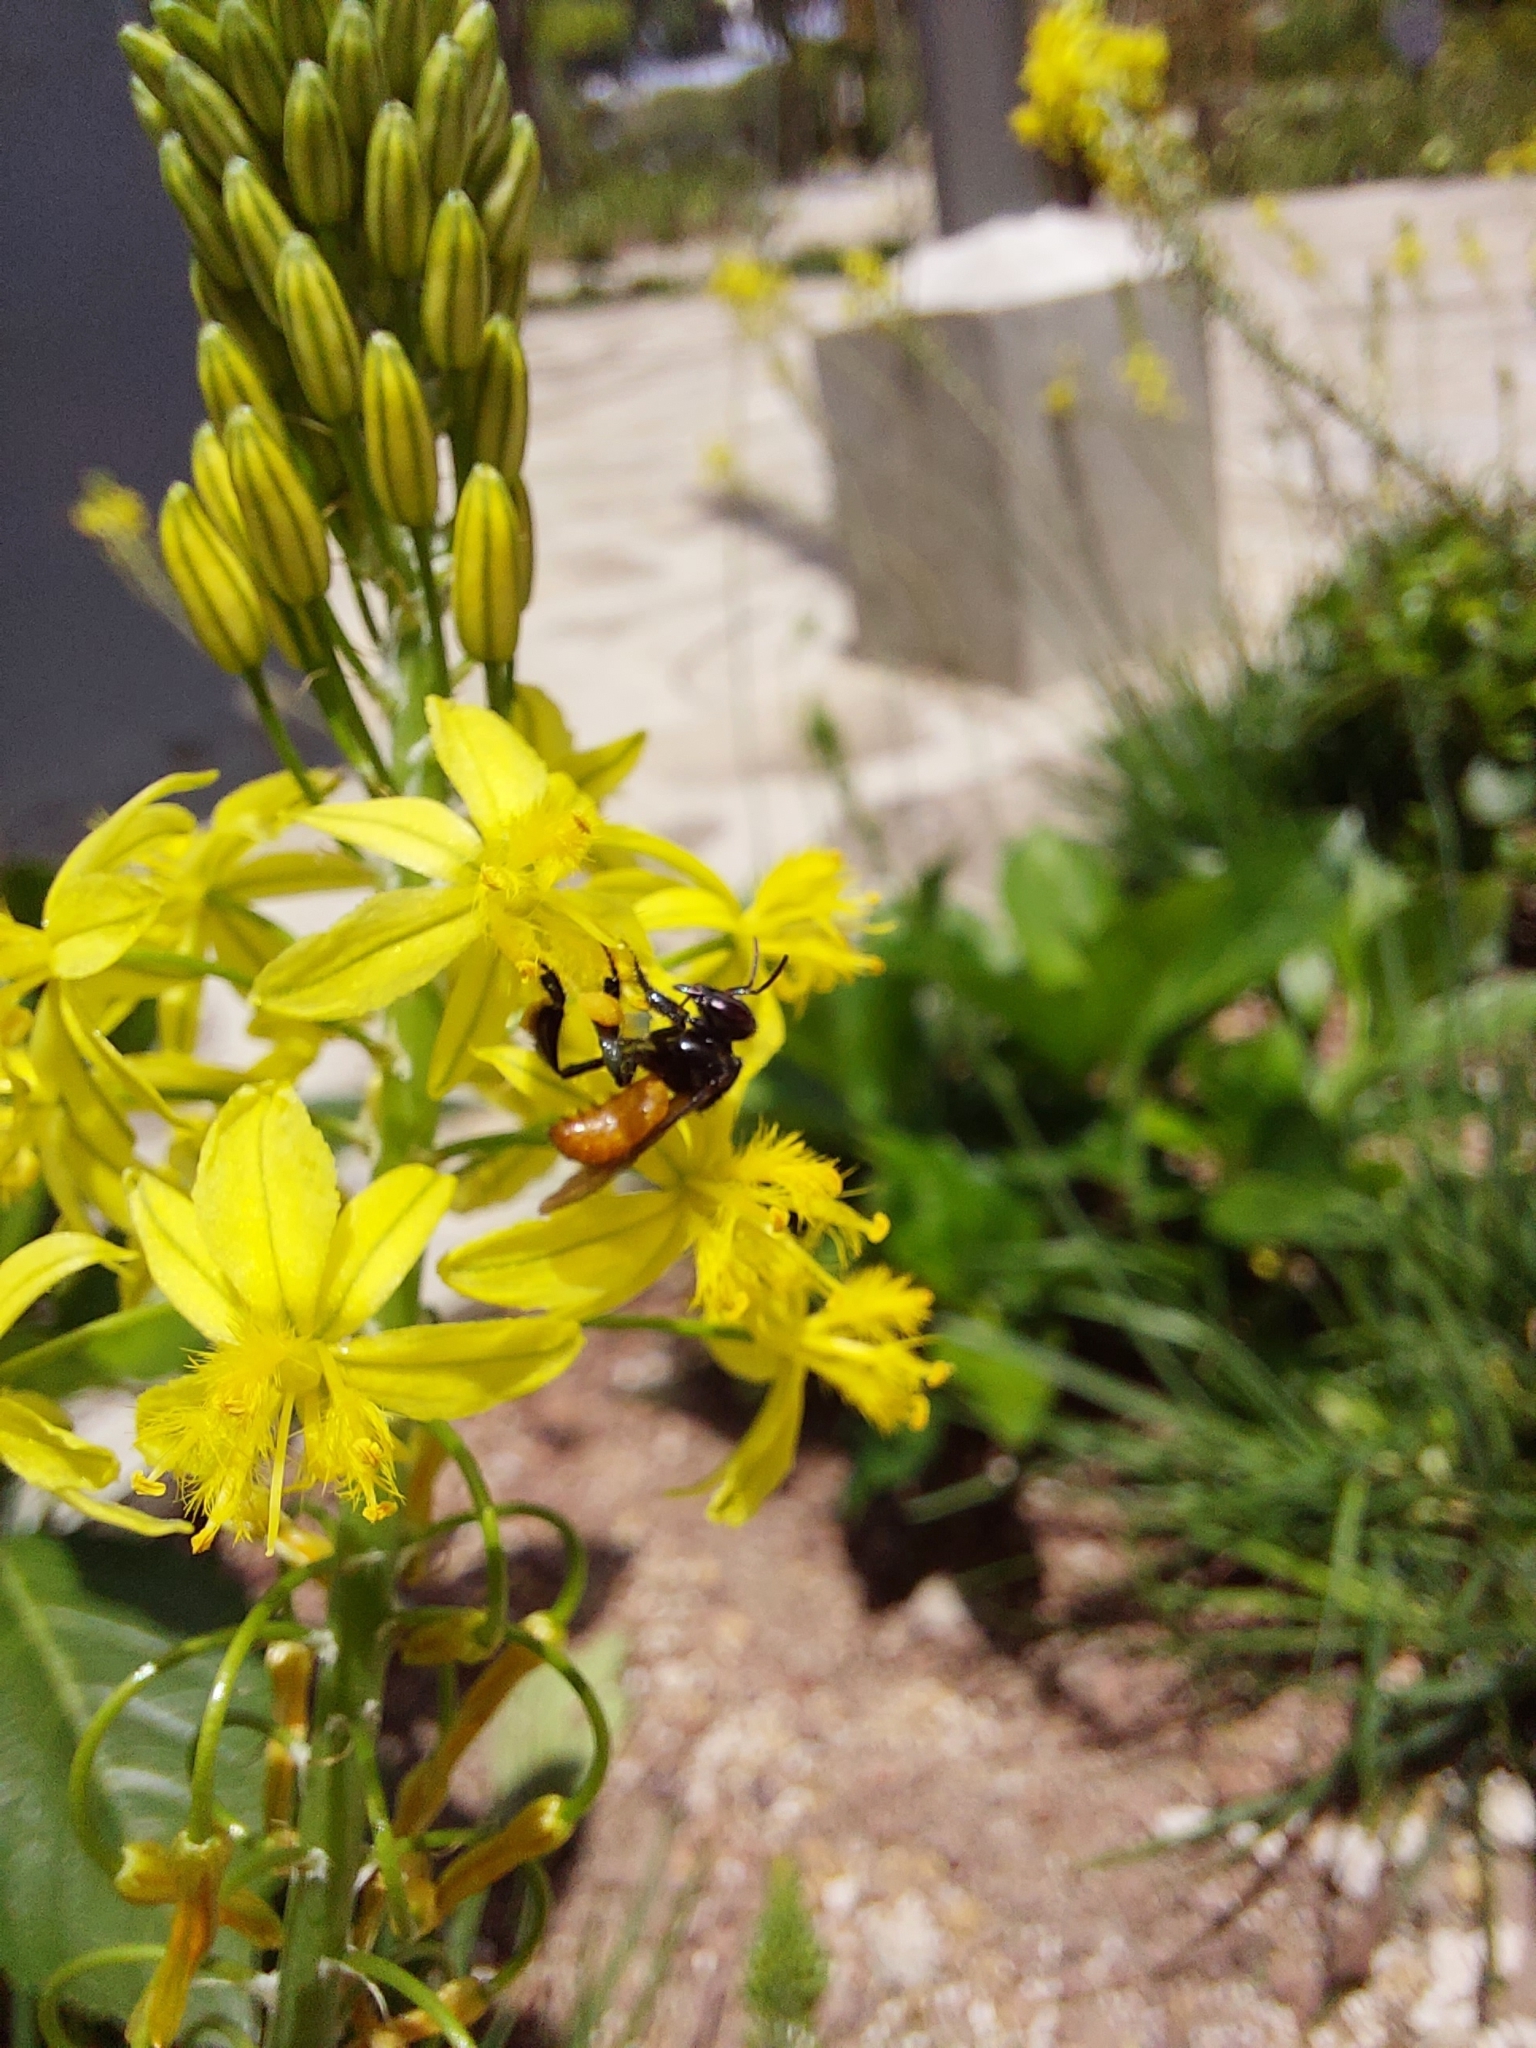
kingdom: Animalia
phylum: Arthropoda
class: Insecta
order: Hymenoptera
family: Apidae
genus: Trigona
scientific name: Trigona fulviventris
